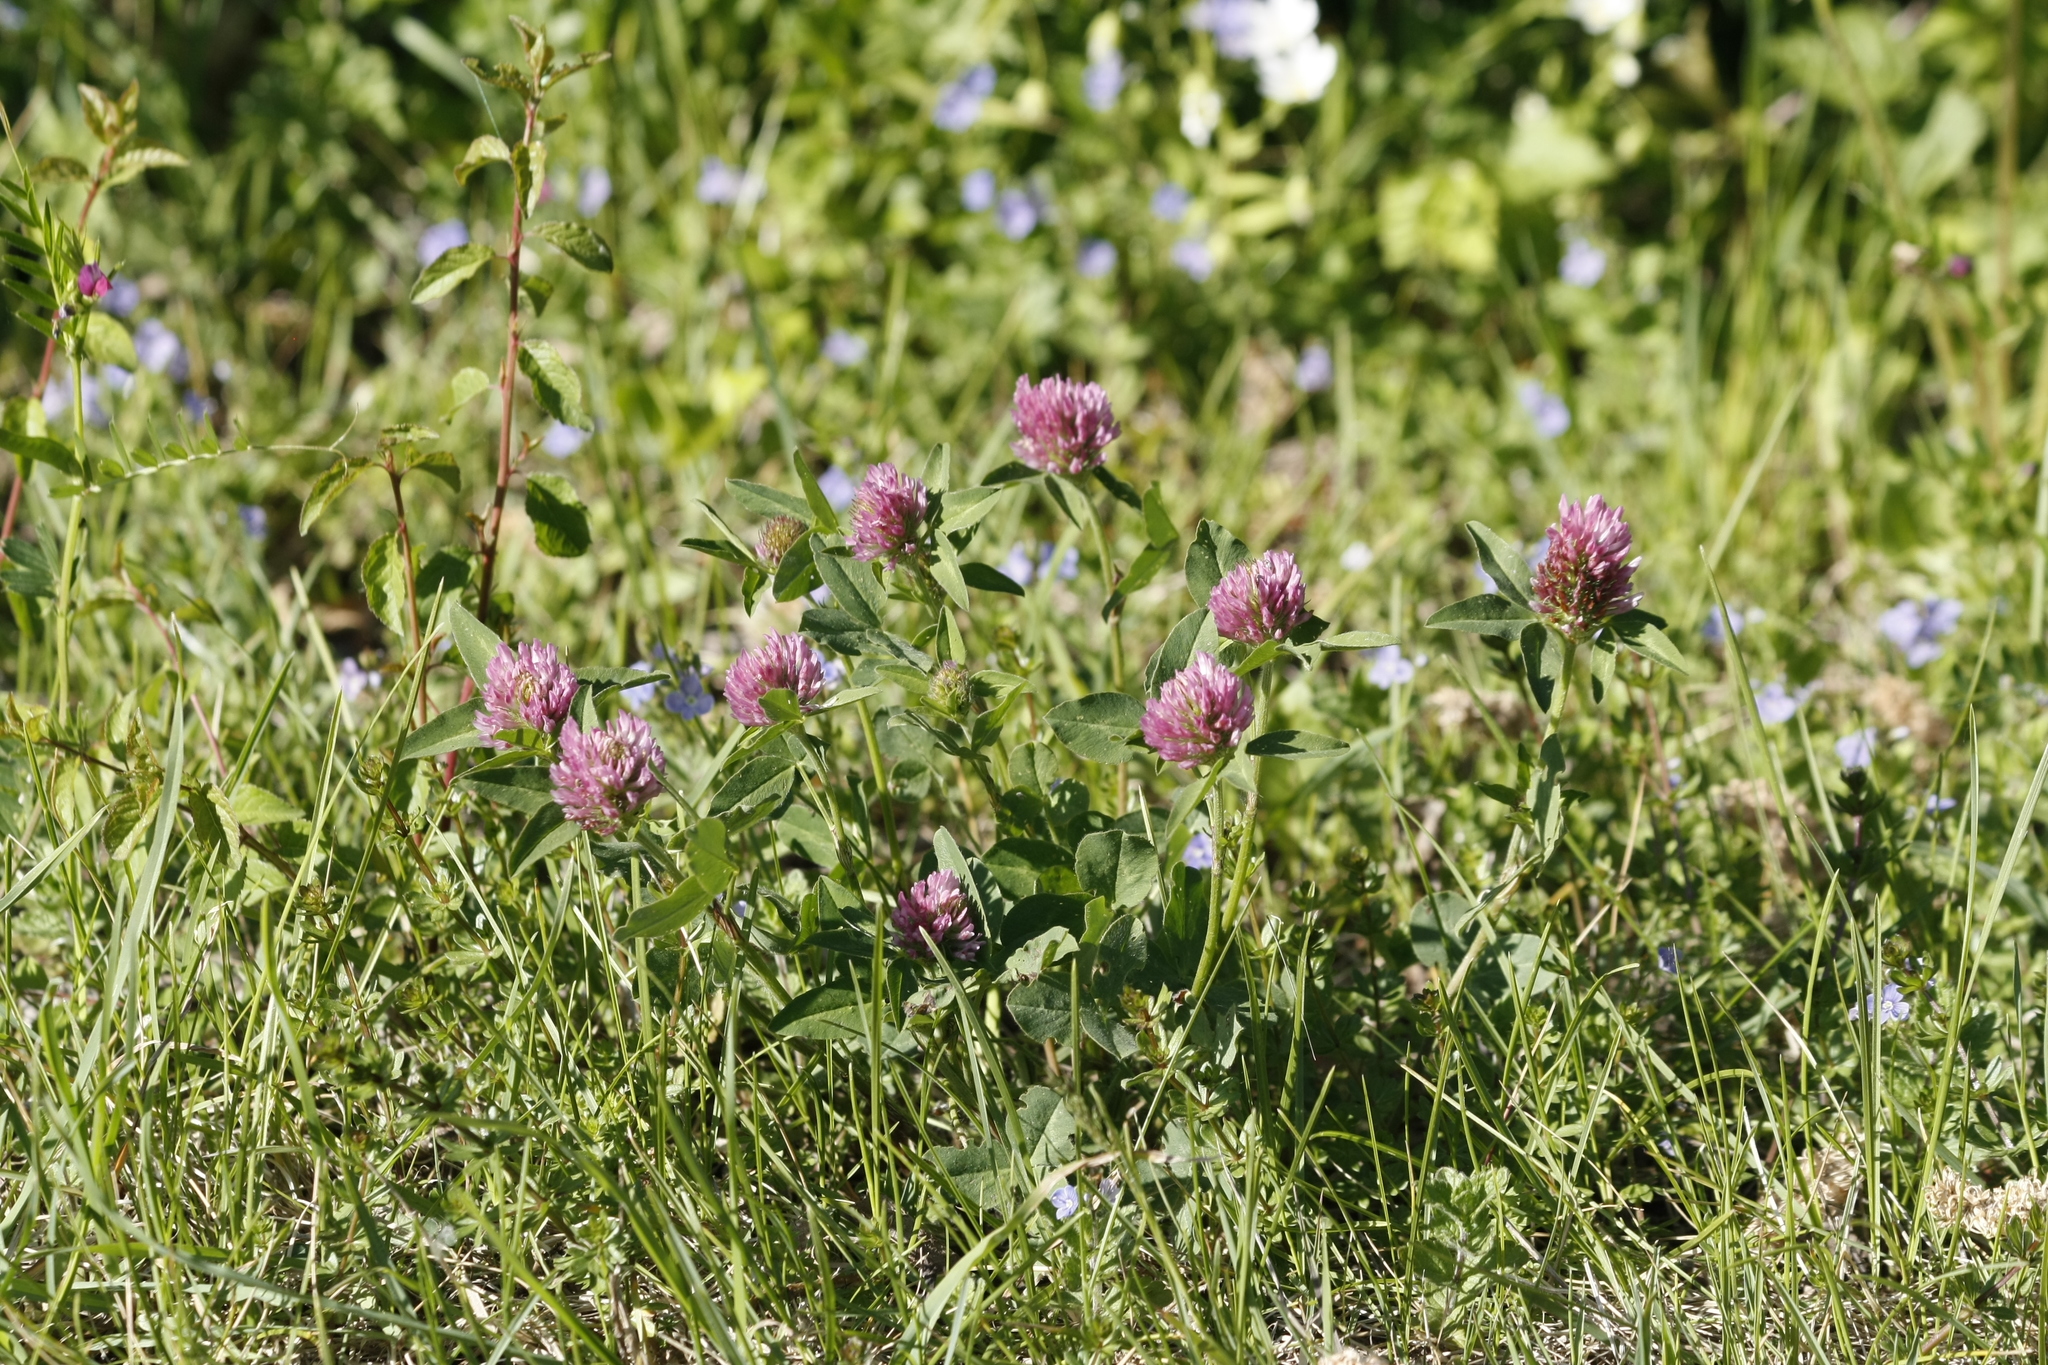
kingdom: Plantae
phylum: Tracheophyta
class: Magnoliopsida
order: Fabales
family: Fabaceae
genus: Trifolium
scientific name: Trifolium pratense
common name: Red clover
